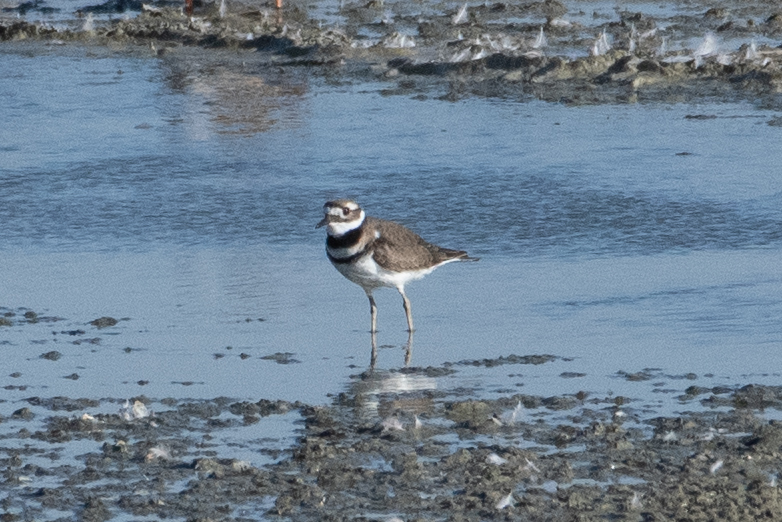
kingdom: Animalia
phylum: Chordata
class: Aves
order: Charadriiformes
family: Charadriidae
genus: Charadrius
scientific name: Charadrius vociferus
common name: Killdeer
